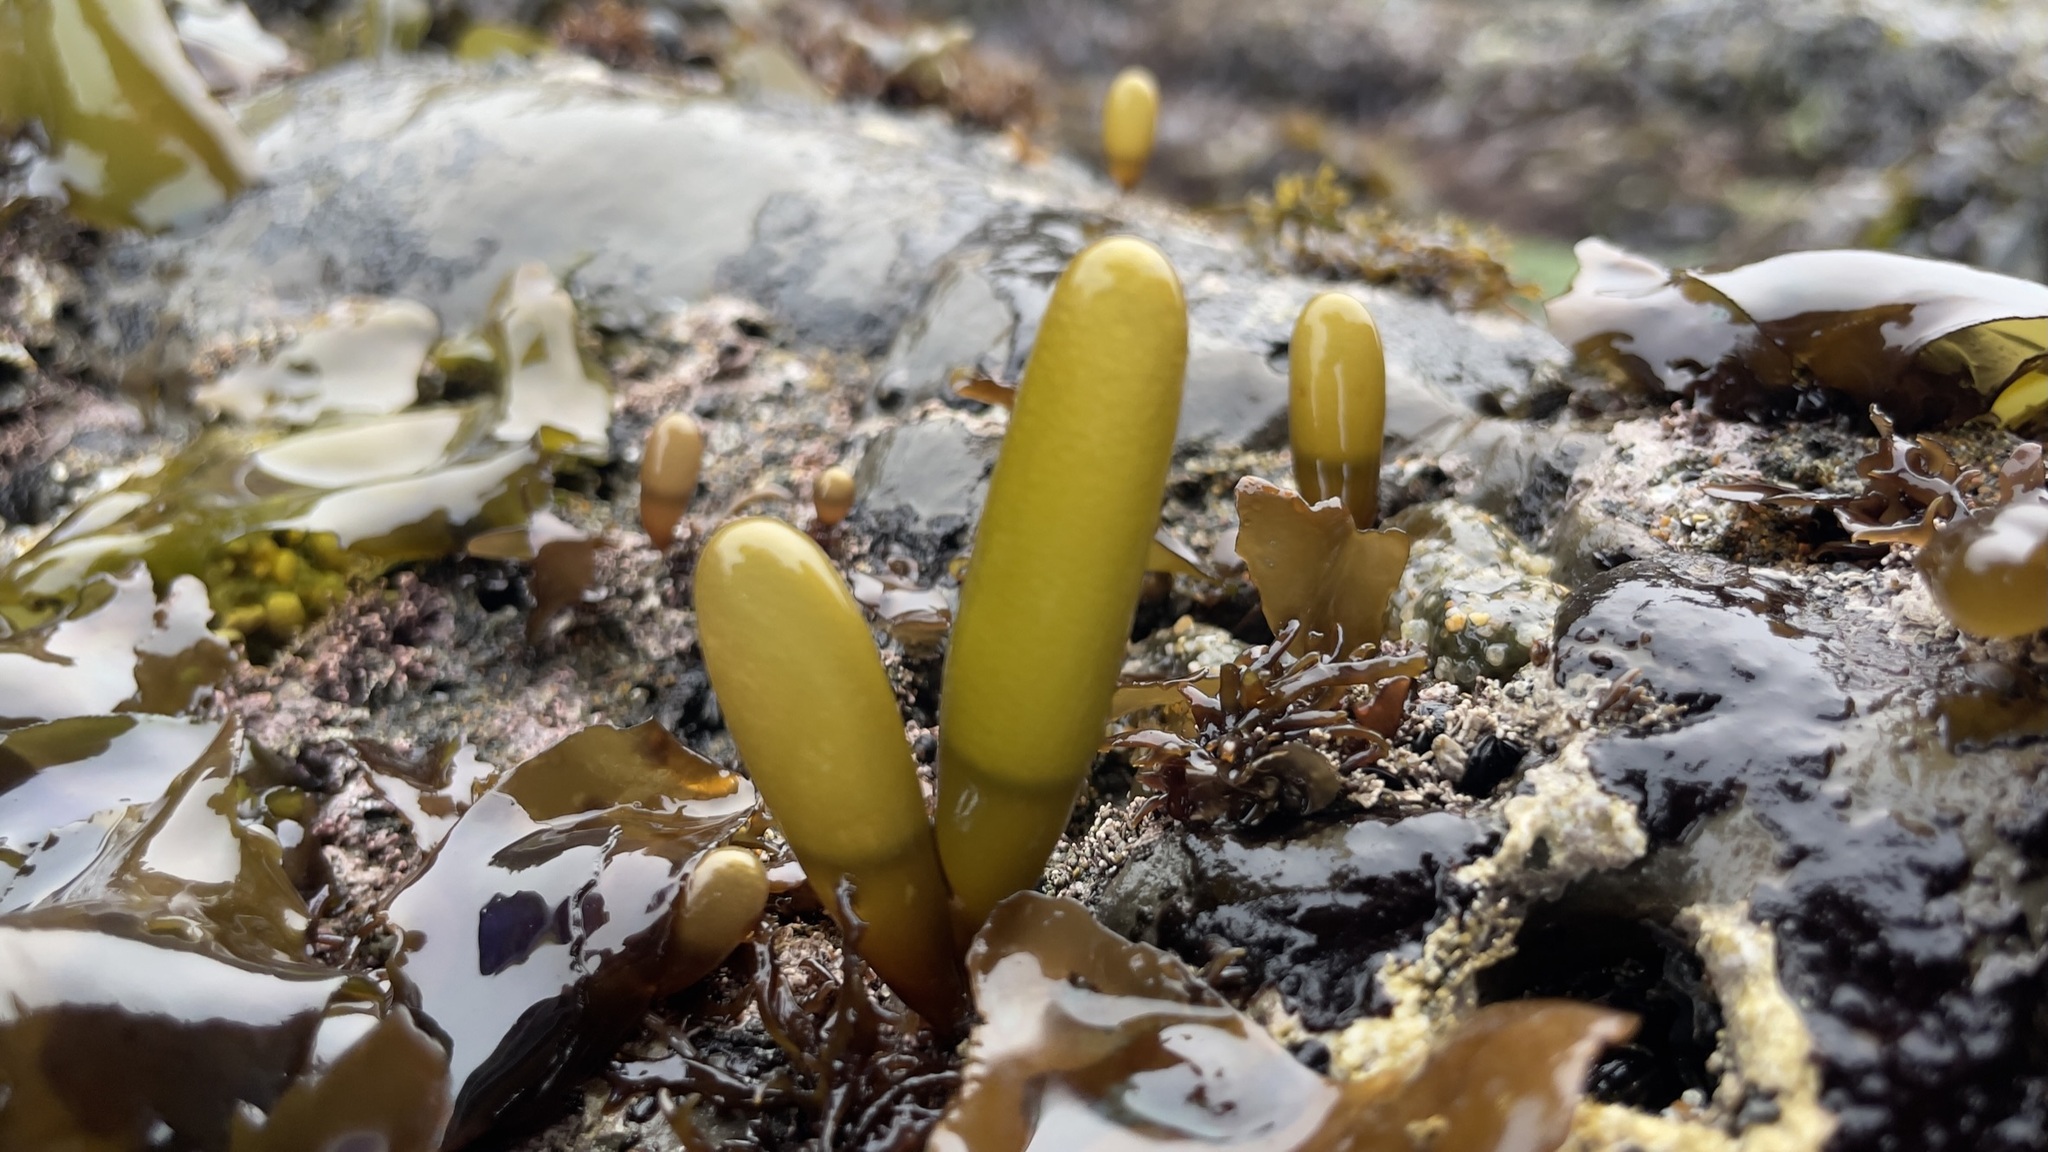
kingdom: Plantae
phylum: Rhodophyta
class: Florideophyceae
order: Palmariales
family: Palmariaceae
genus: Halosaccion
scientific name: Halosaccion glandiforme
